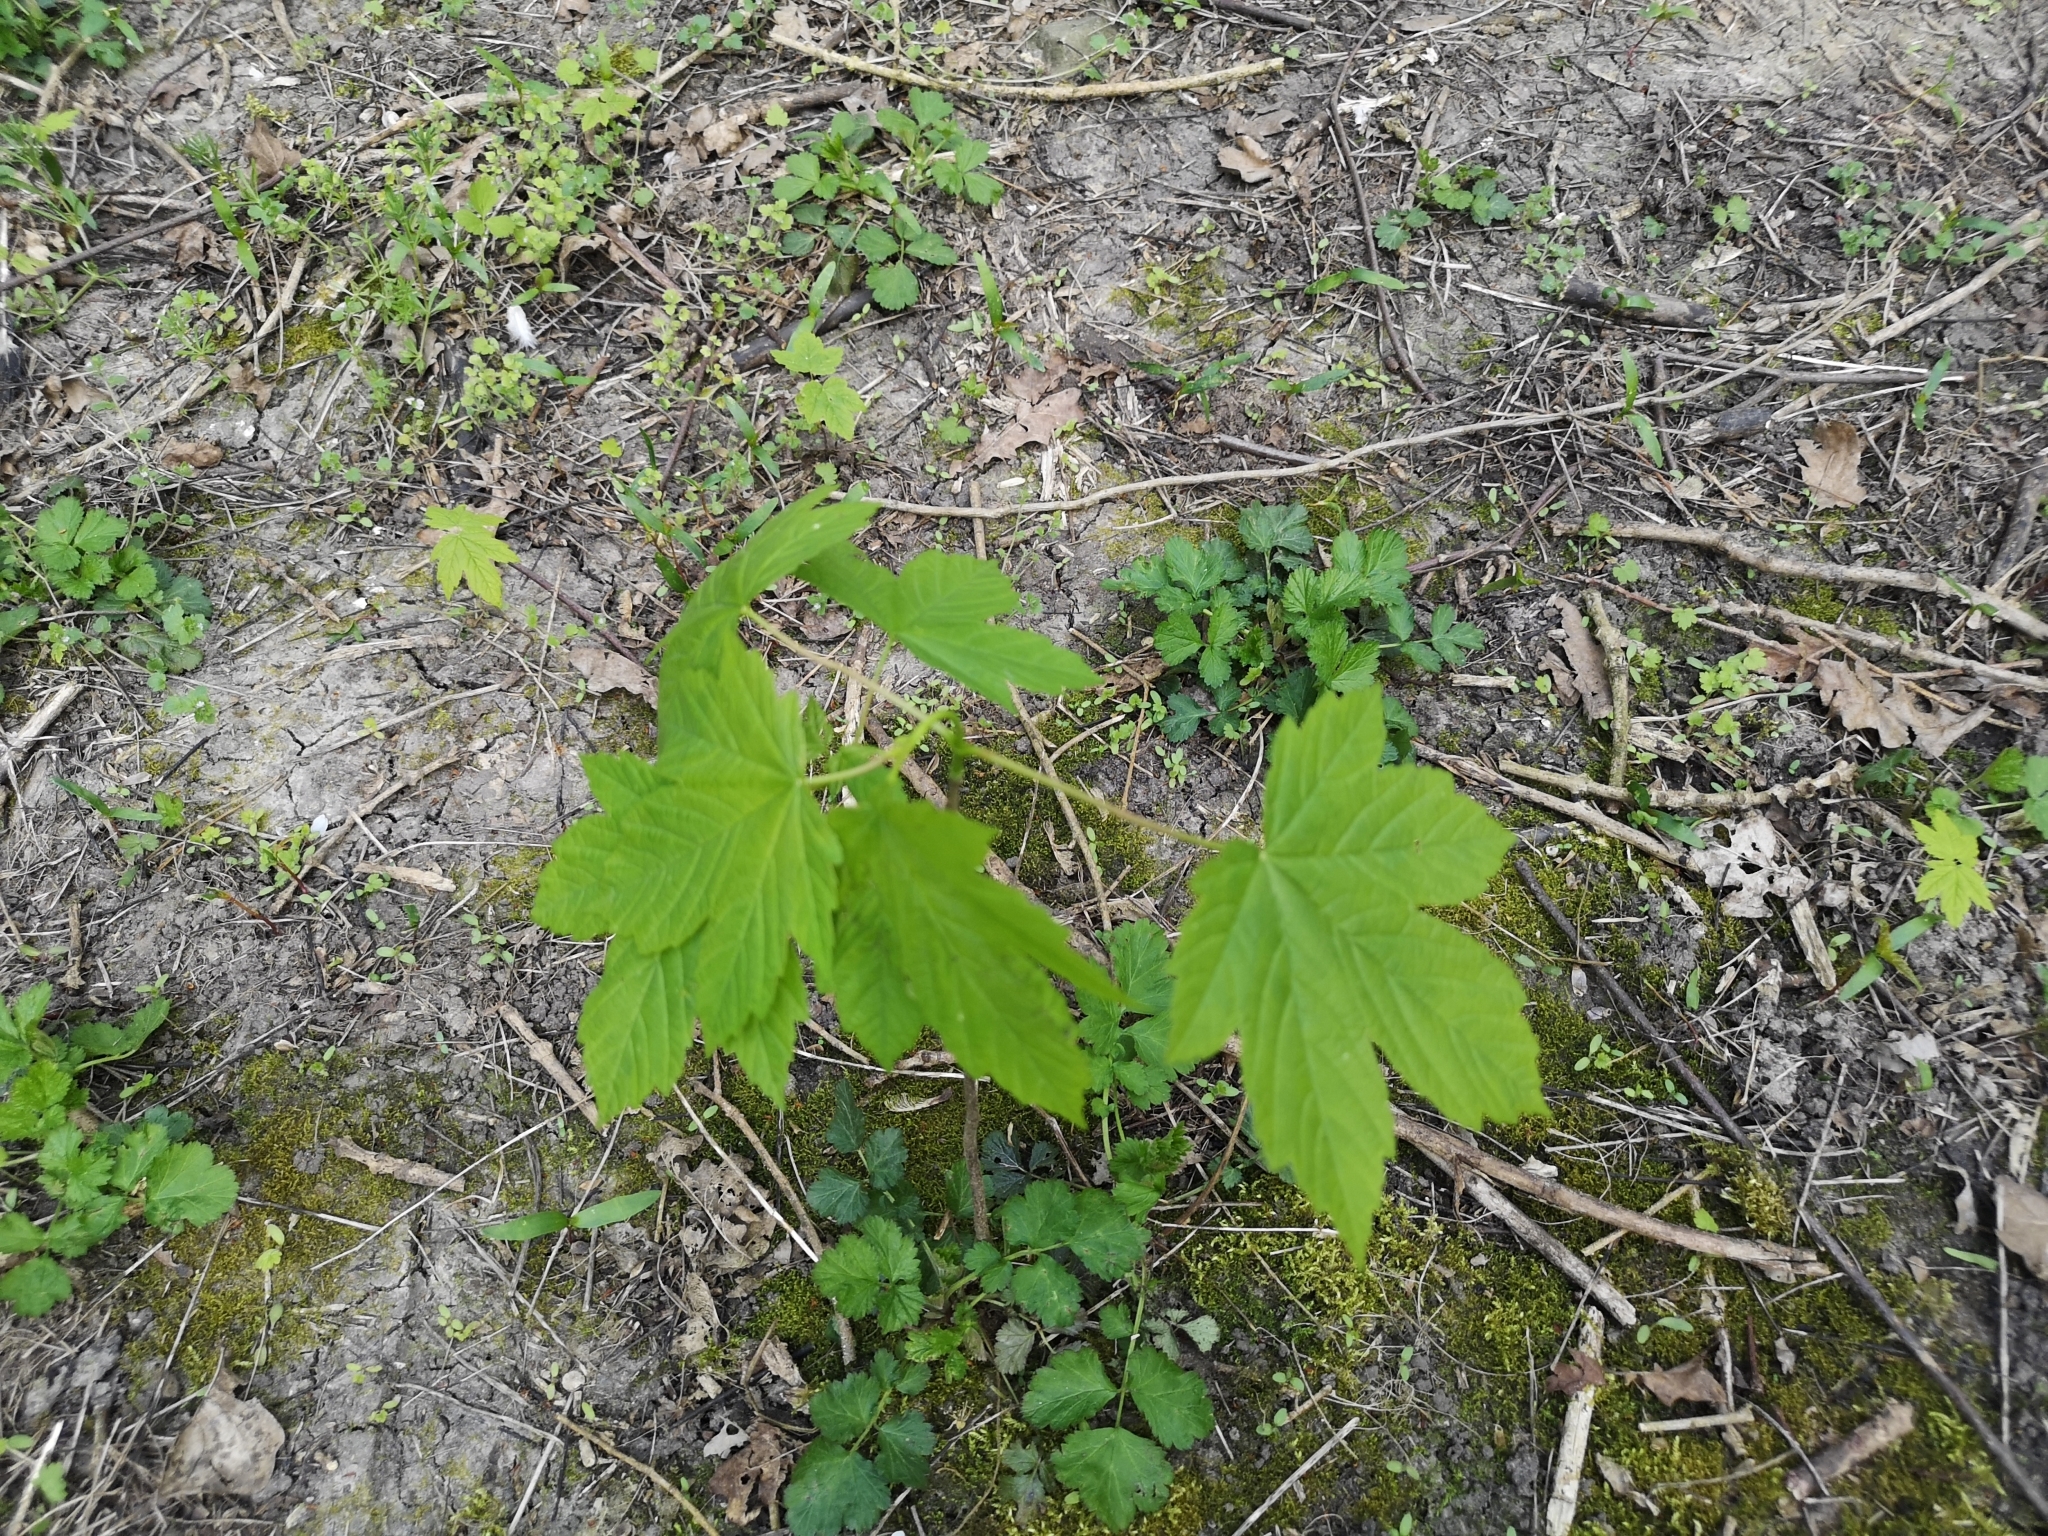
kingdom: Plantae
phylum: Tracheophyta
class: Magnoliopsida
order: Sapindales
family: Sapindaceae
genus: Acer
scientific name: Acer pseudoplatanus
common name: Sycamore
